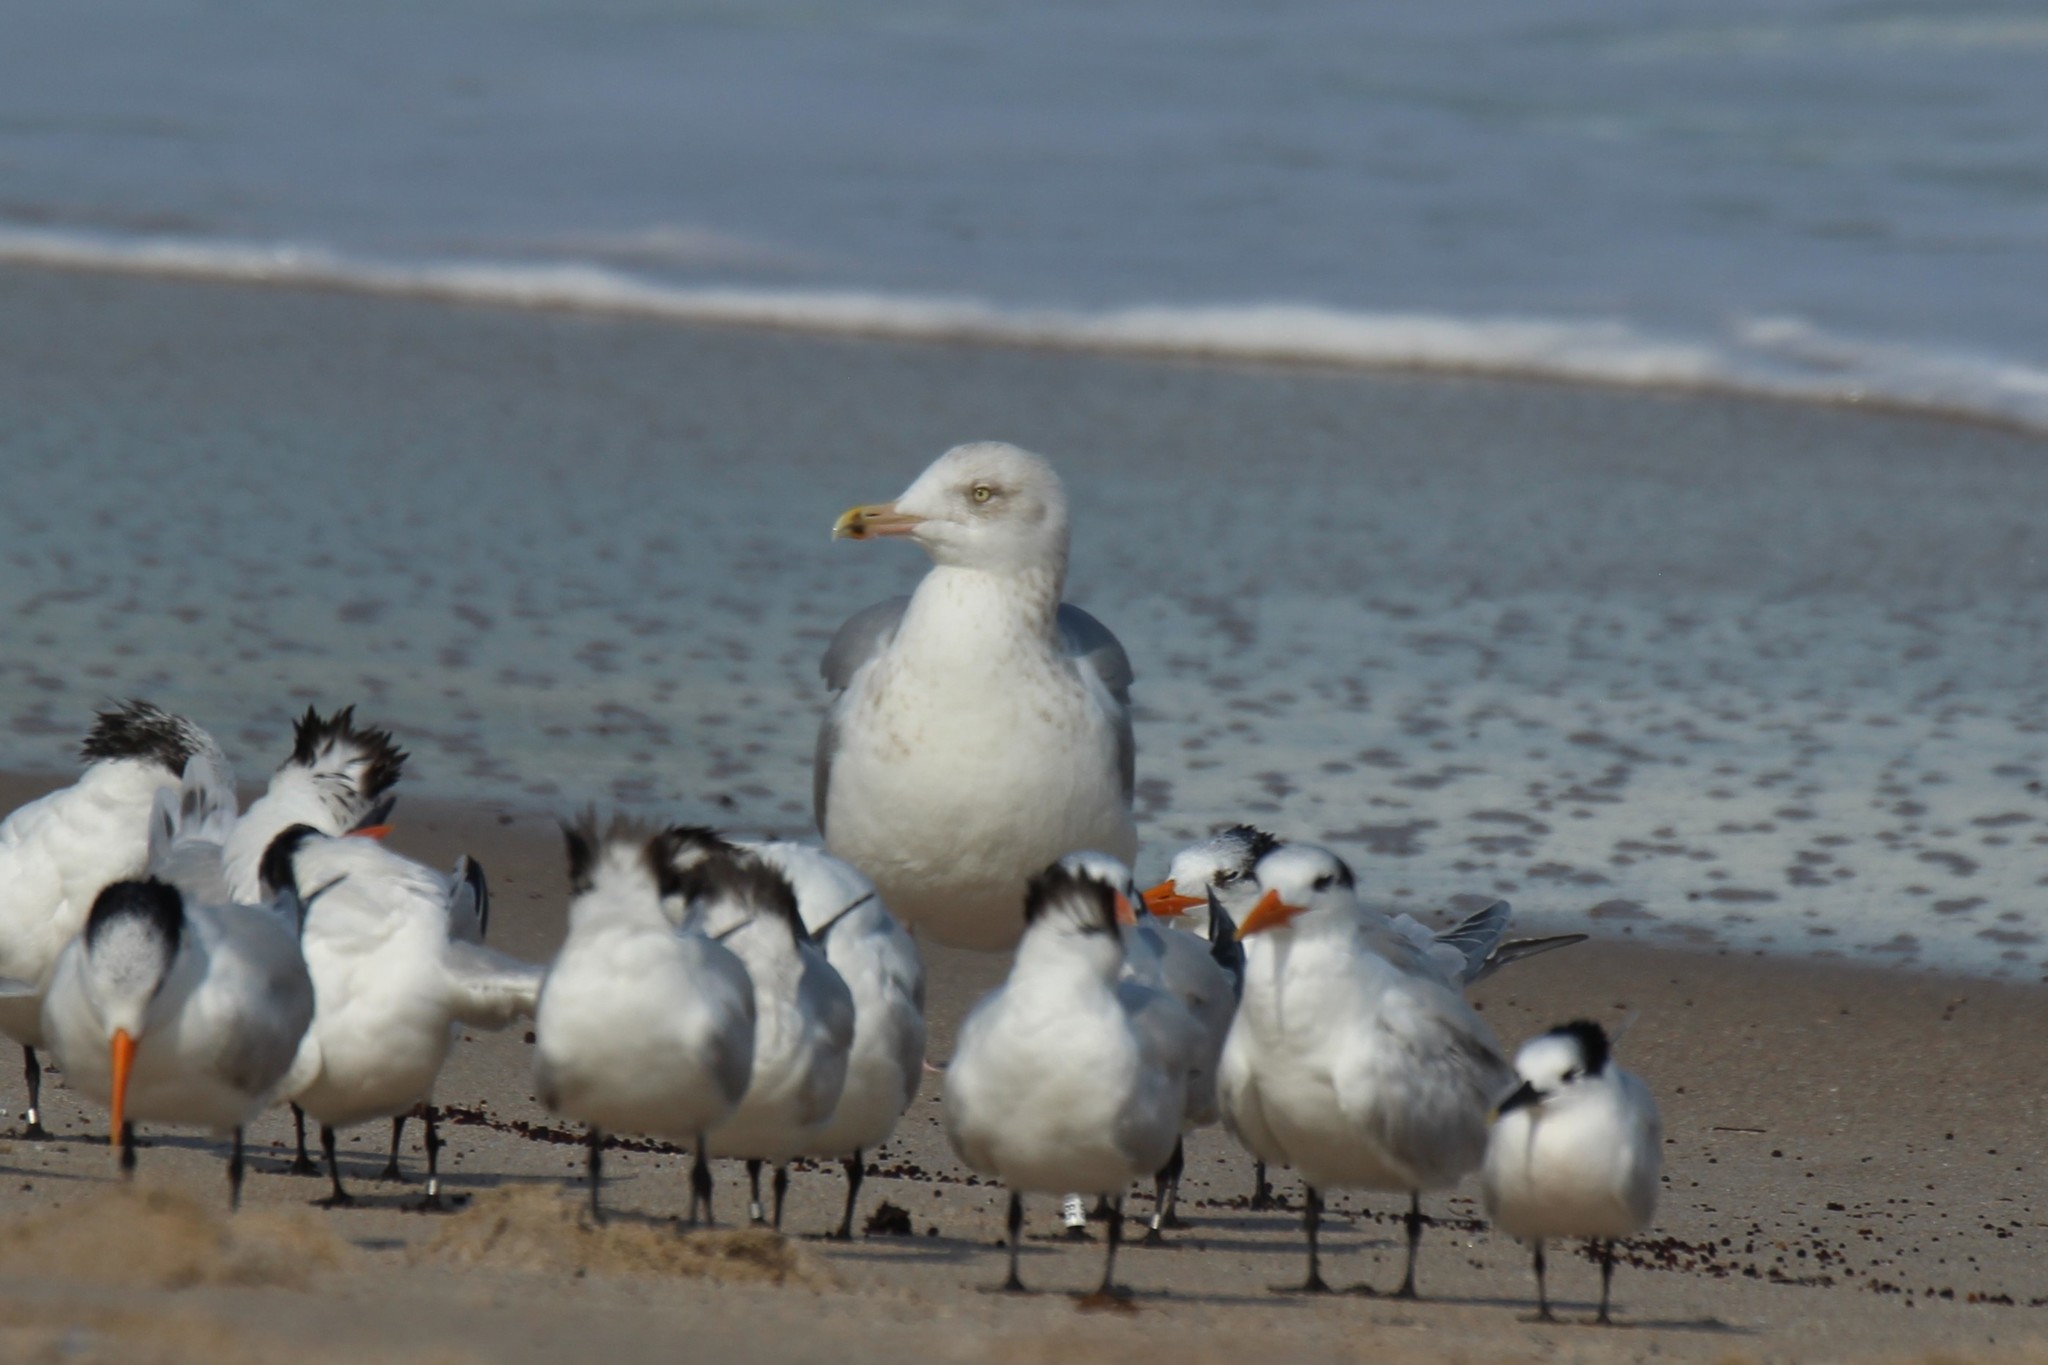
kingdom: Animalia
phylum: Chordata
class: Aves
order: Charadriiformes
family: Laridae
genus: Larus
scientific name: Larus argentatus
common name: Herring gull
